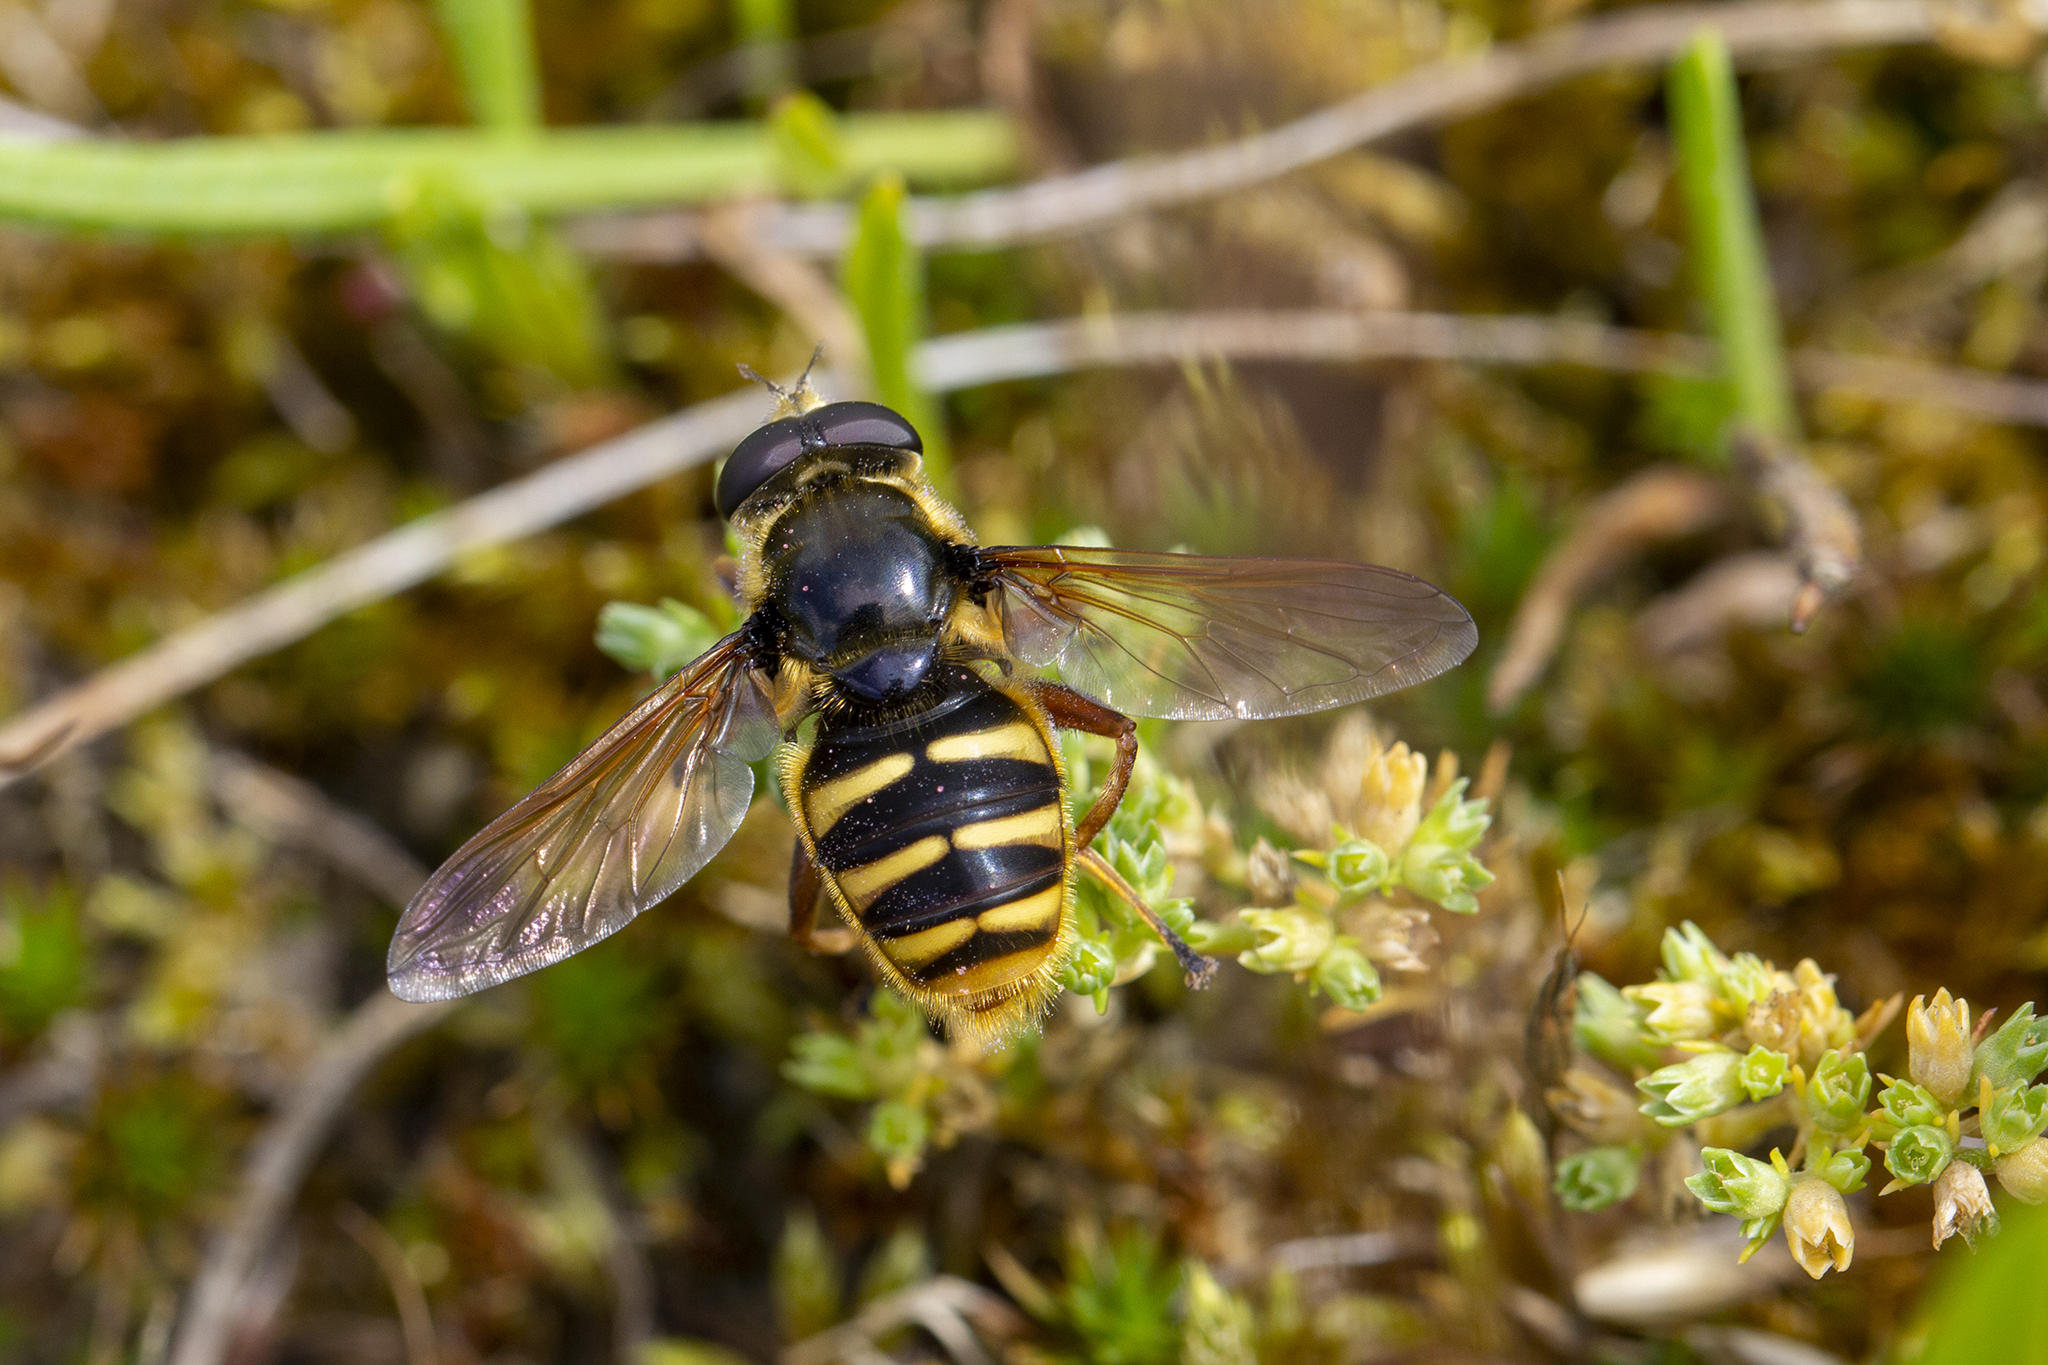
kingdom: Animalia
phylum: Arthropoda
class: Insecta
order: Diptera
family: Syrphidae
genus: Sericomyia
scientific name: Sericomyia silentis
